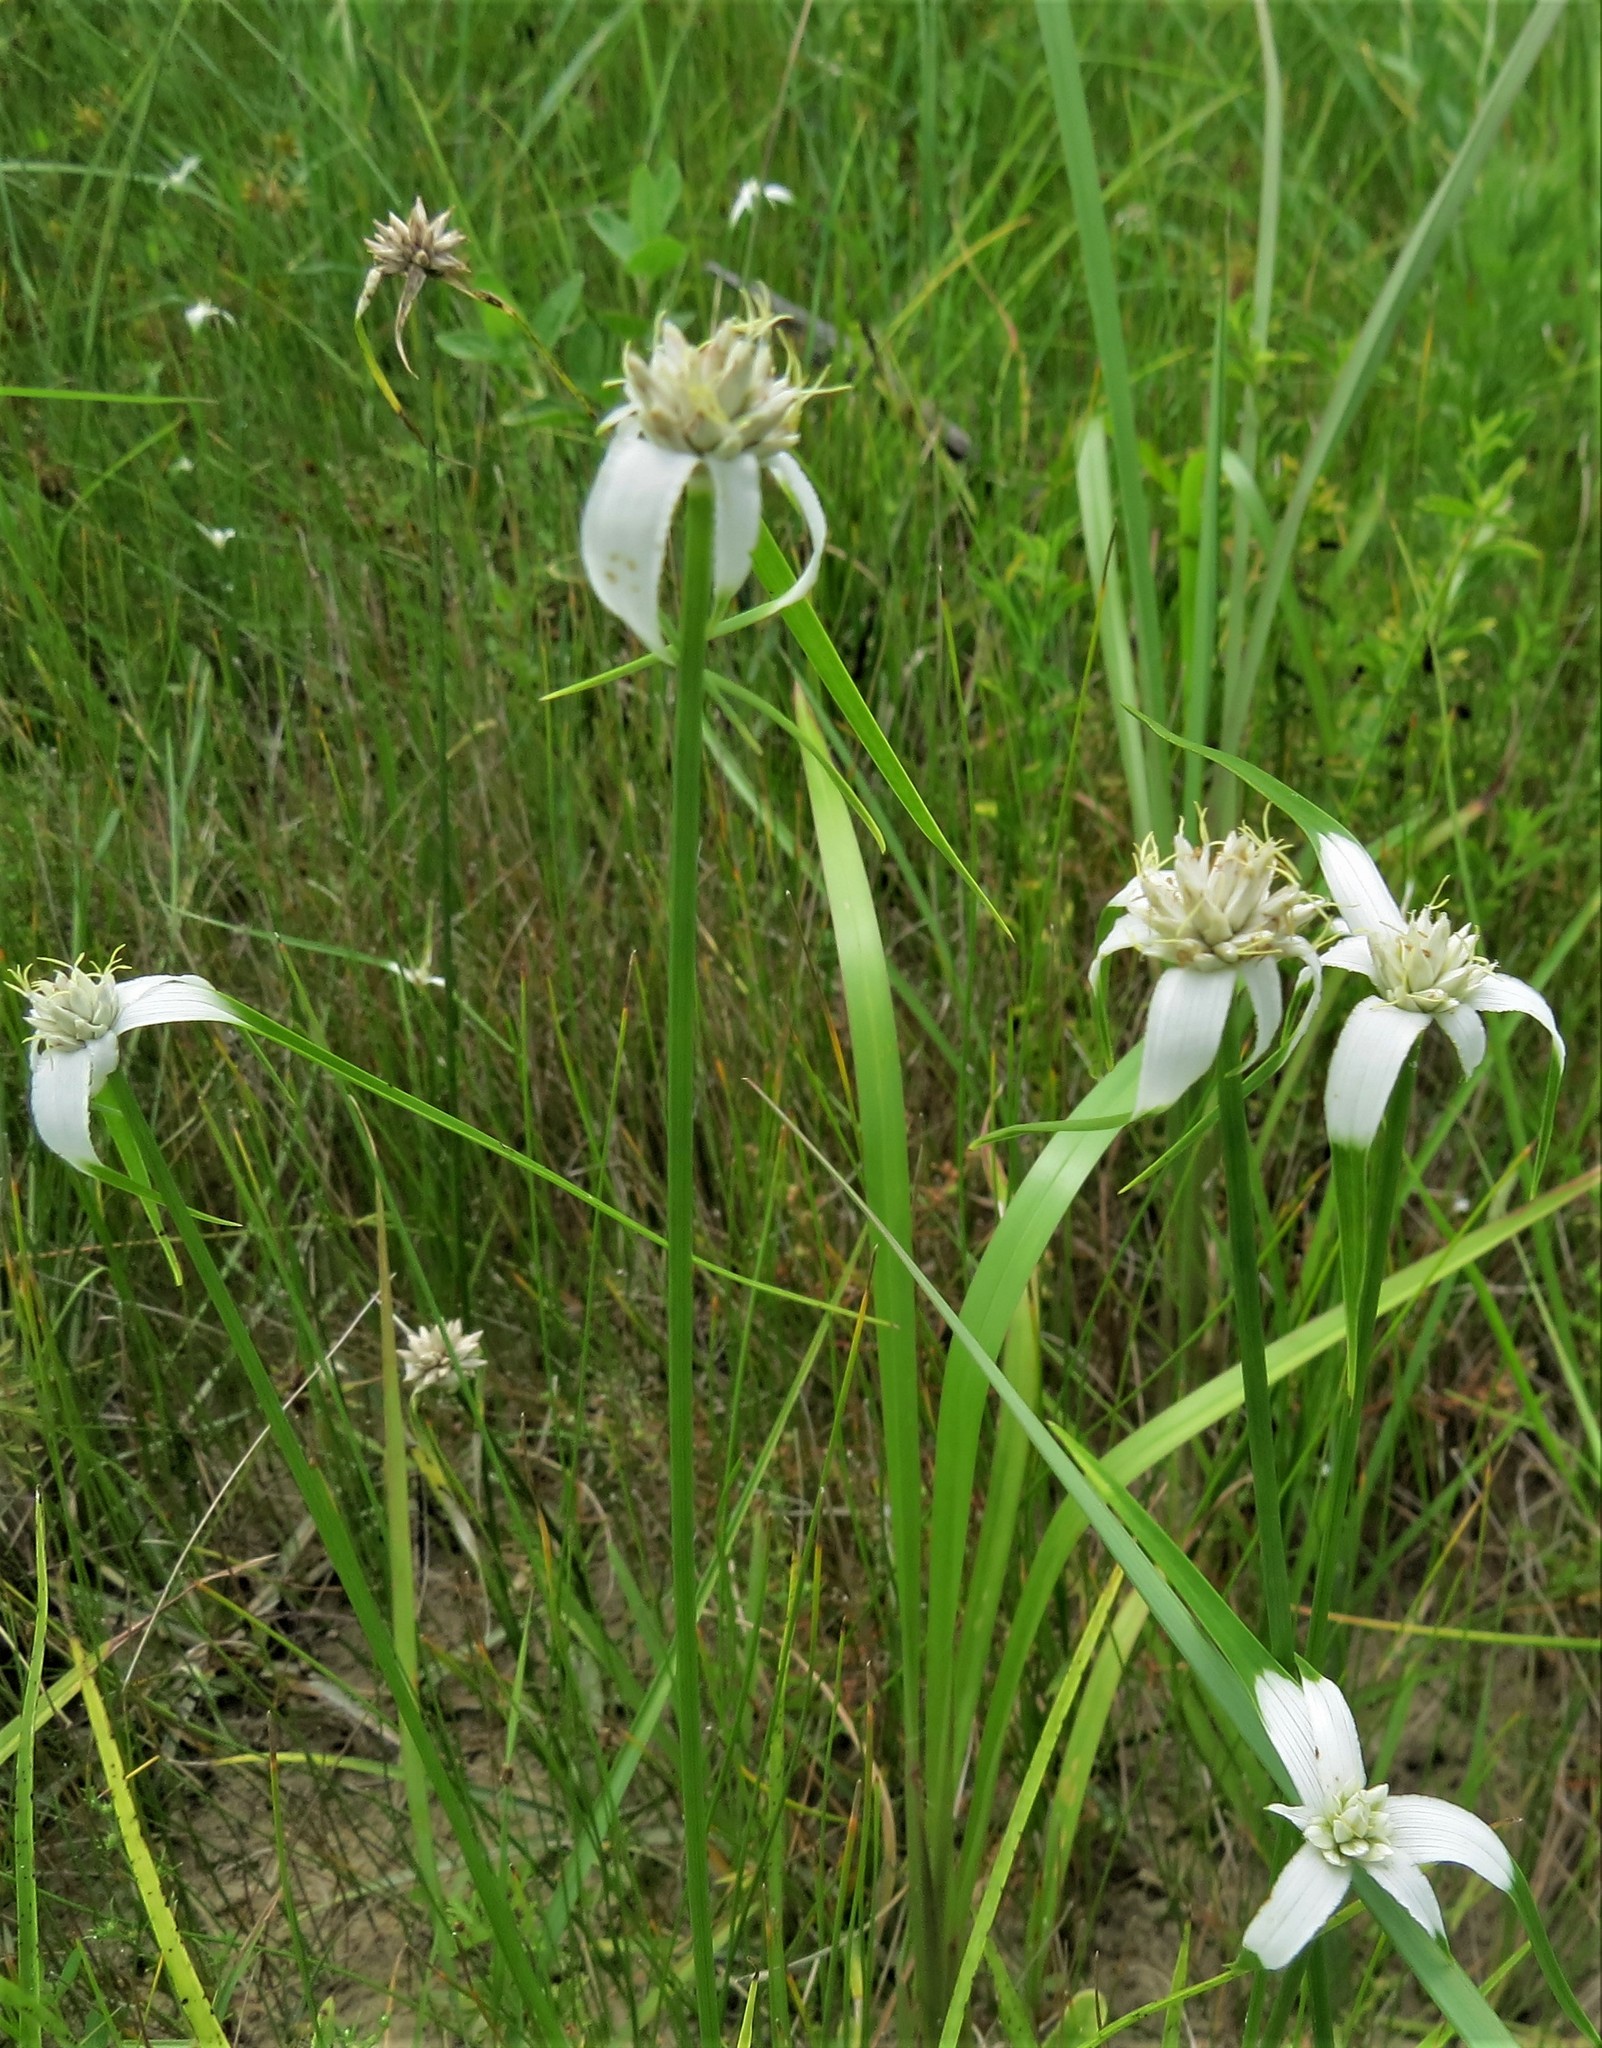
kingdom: Plantae
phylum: Tracheophyta
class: Liliopsida
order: Poales
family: Cyperaceae
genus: Rhynchospora
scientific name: Rhynchospora colorata
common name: Star sedge
